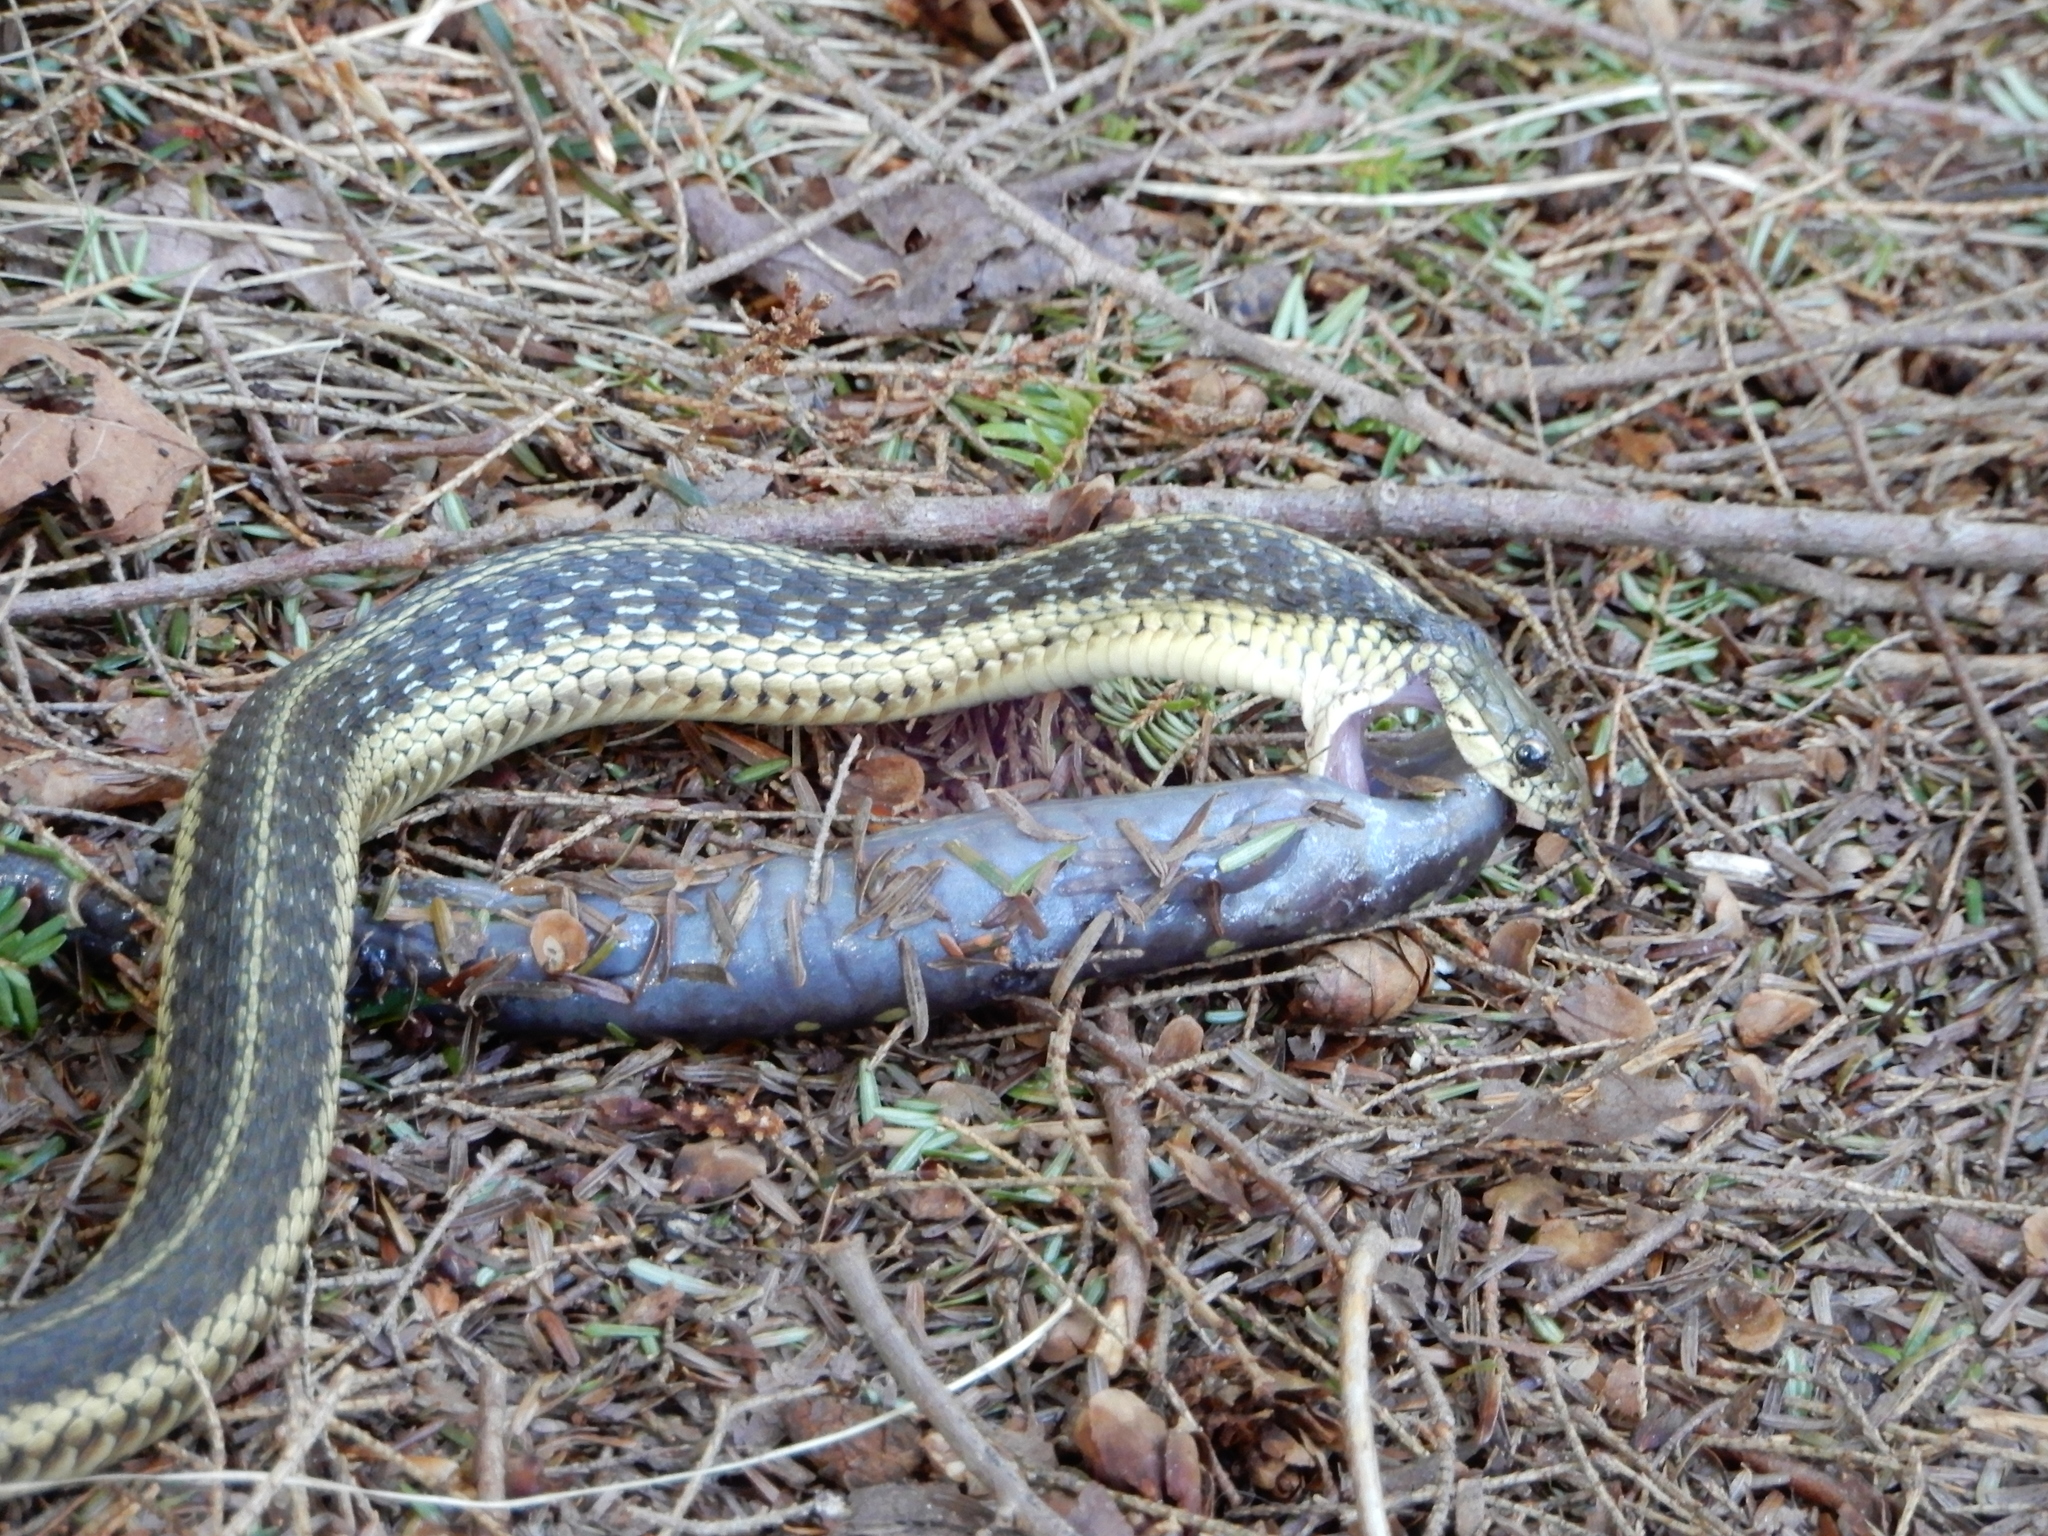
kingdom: Animalia
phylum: Chordata
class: Squamata
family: Colubridae
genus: Thamnophis
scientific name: Thamnophis sirtalis
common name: Common garter snake
